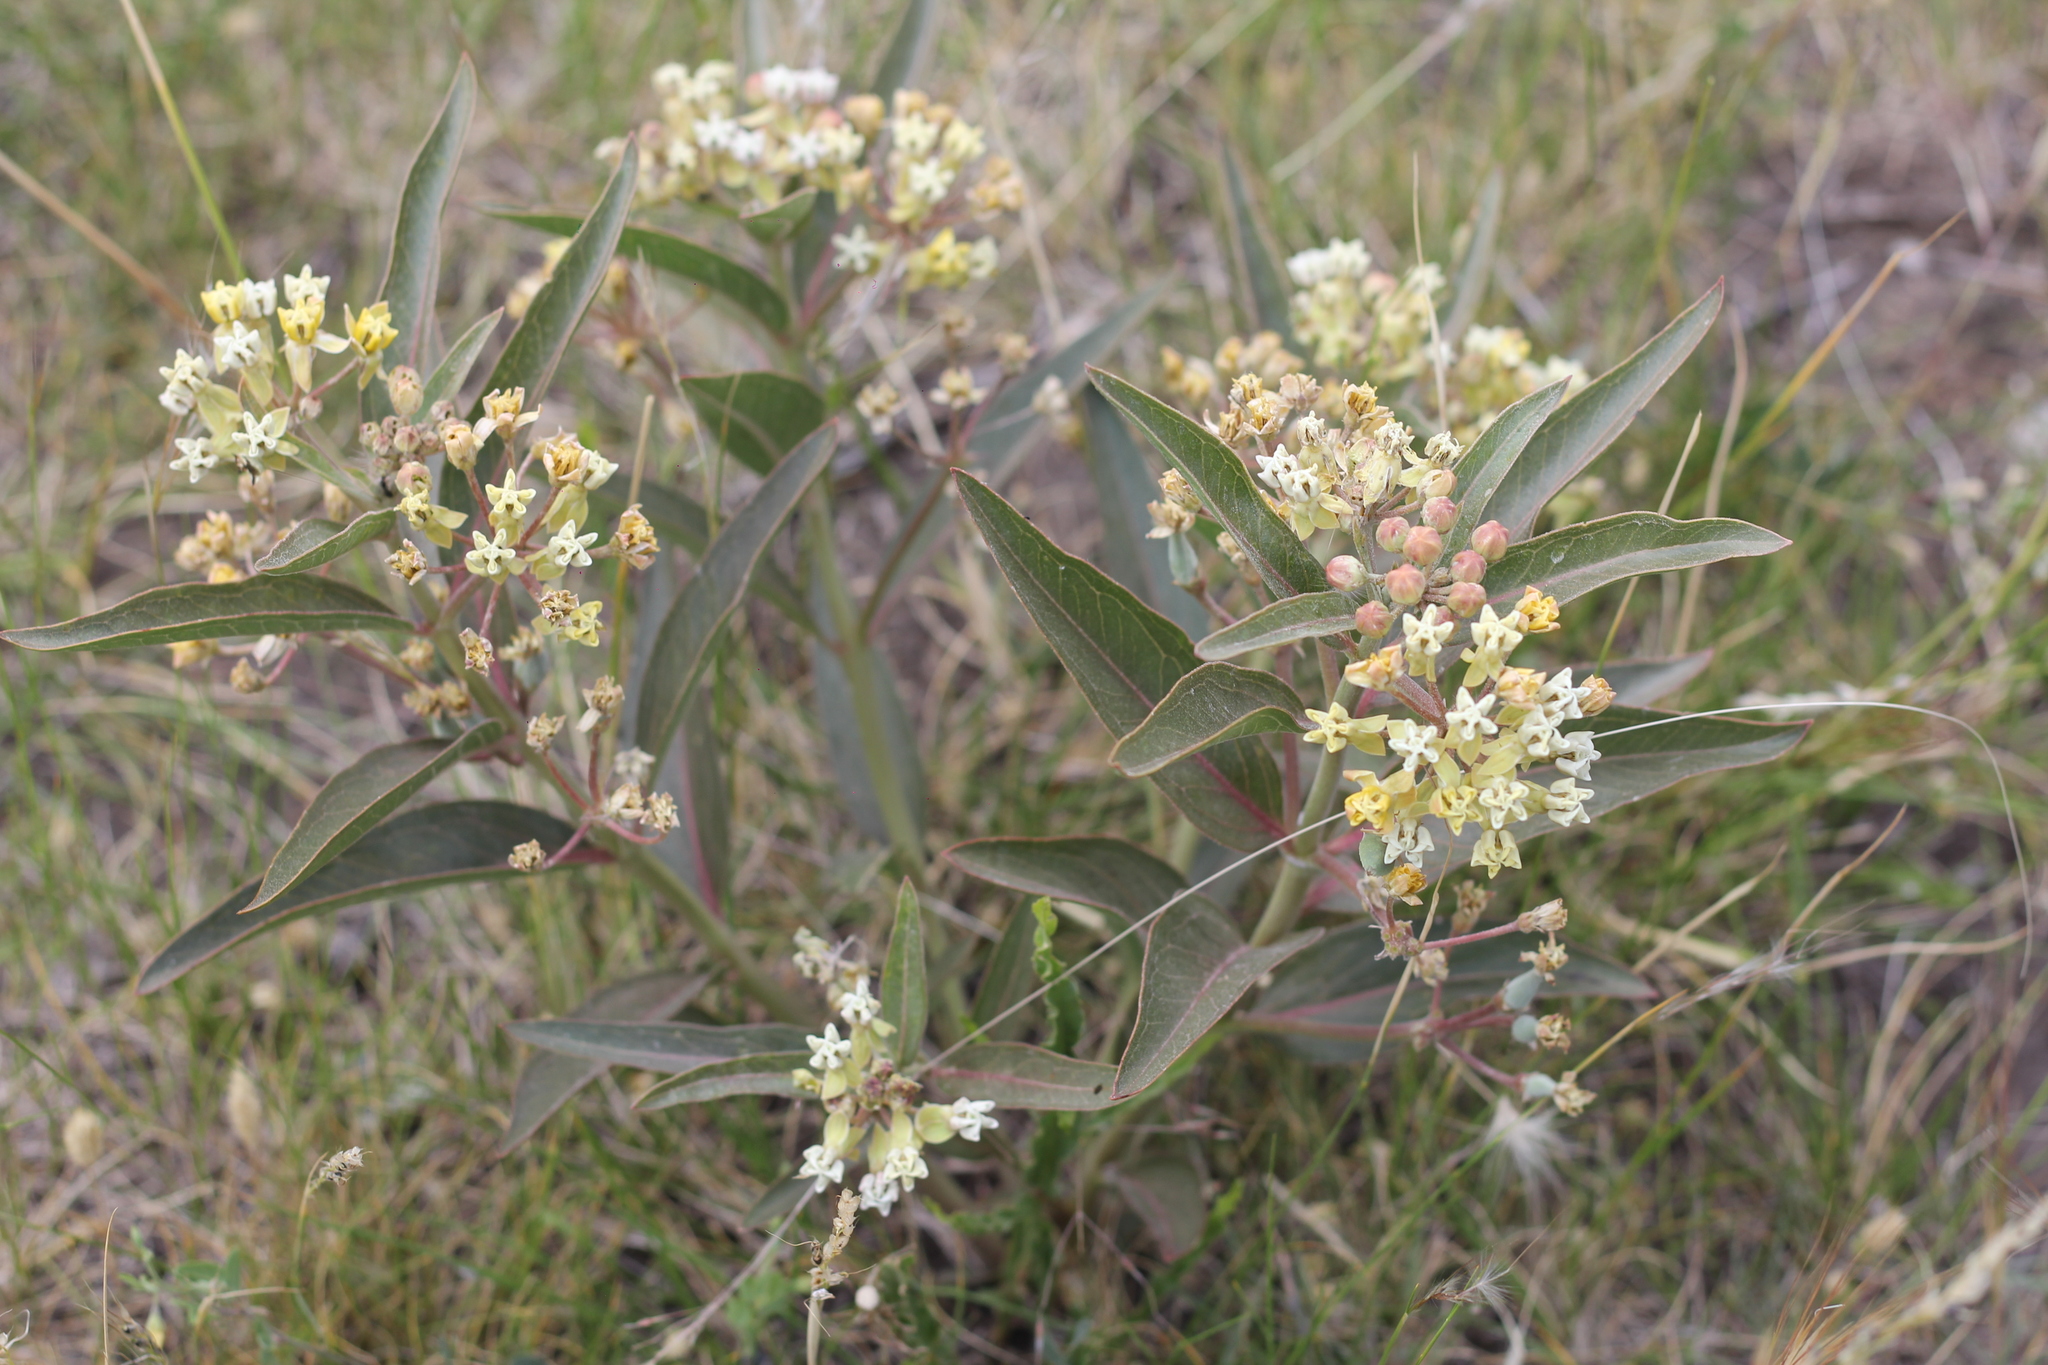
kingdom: Plantae
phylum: Tracheophyta
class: Magnoliopsida
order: Gentianales
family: Apocynaceae
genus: Asclepias
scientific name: Asclepias mellodora
